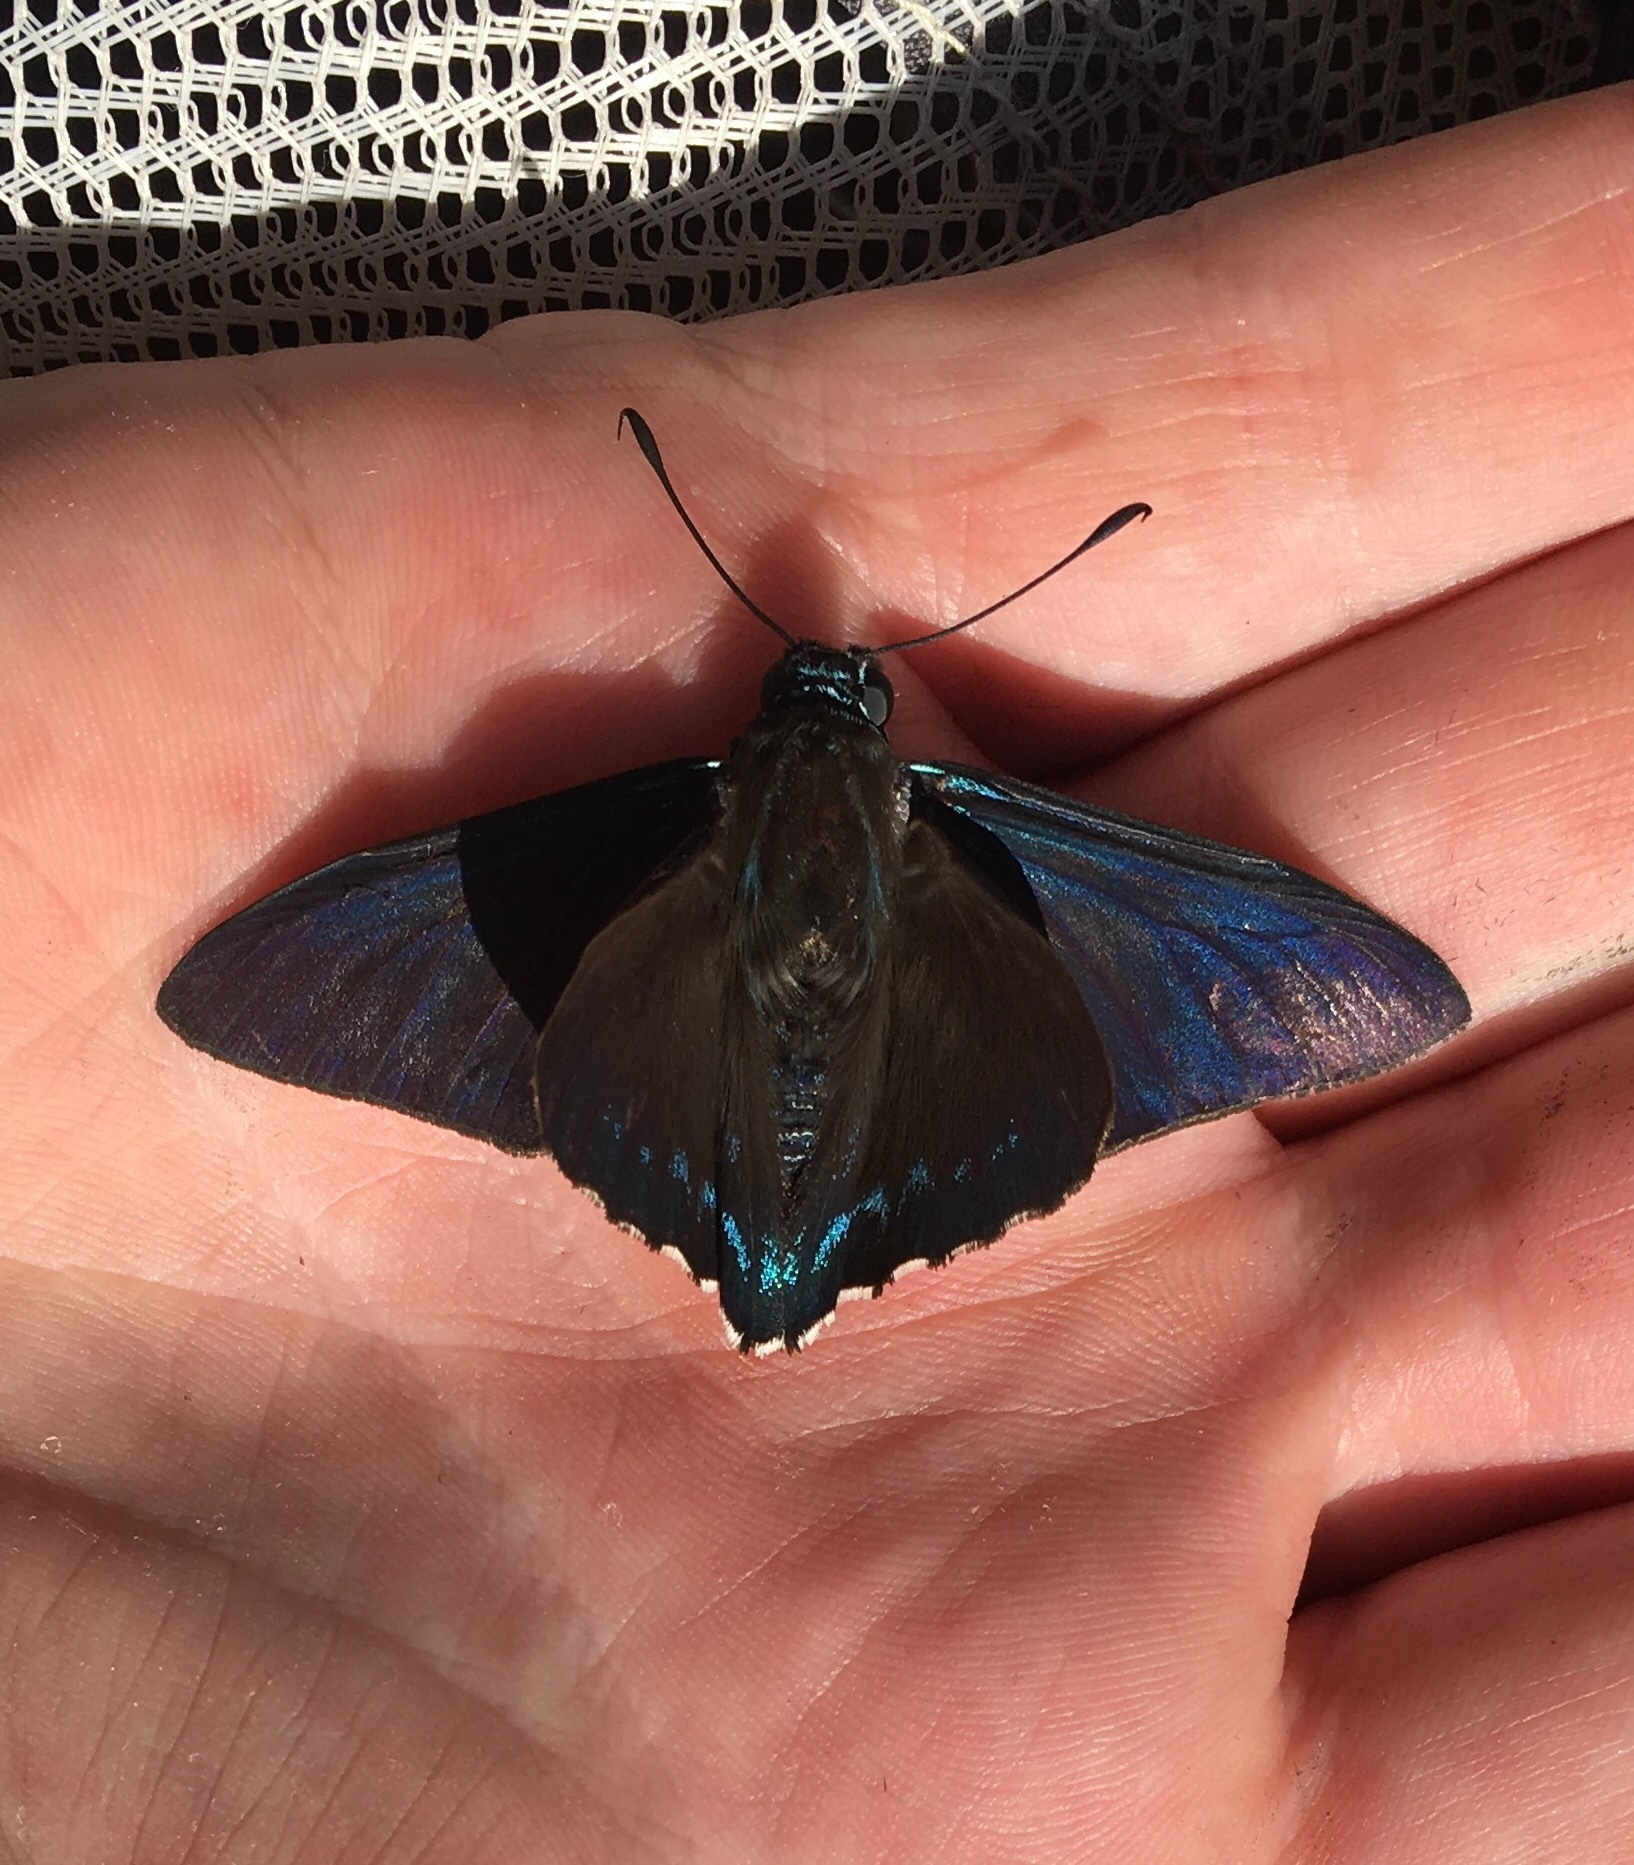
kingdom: Animalia
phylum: Arthropoda
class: Insecta
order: Lepidoptera
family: Hesperiidae
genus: Phocides
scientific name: Phocides pigmalion
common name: Mangrove skipper
